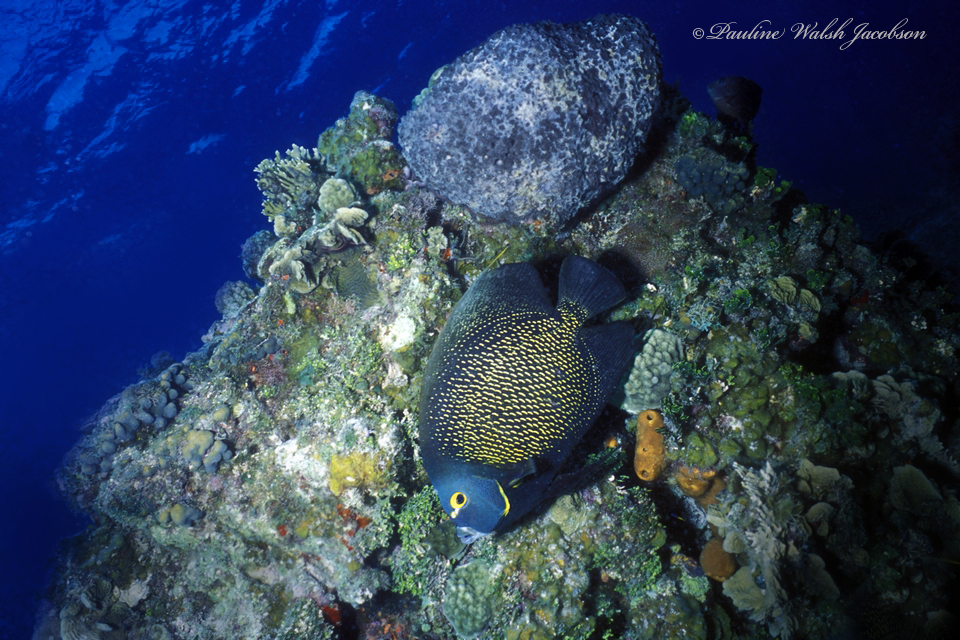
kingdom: Animalia
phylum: Chordata
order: Perciformes
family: Pomacanthidae
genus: Pomacanthus
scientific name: Pomacanthus paru
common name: French angelfish
